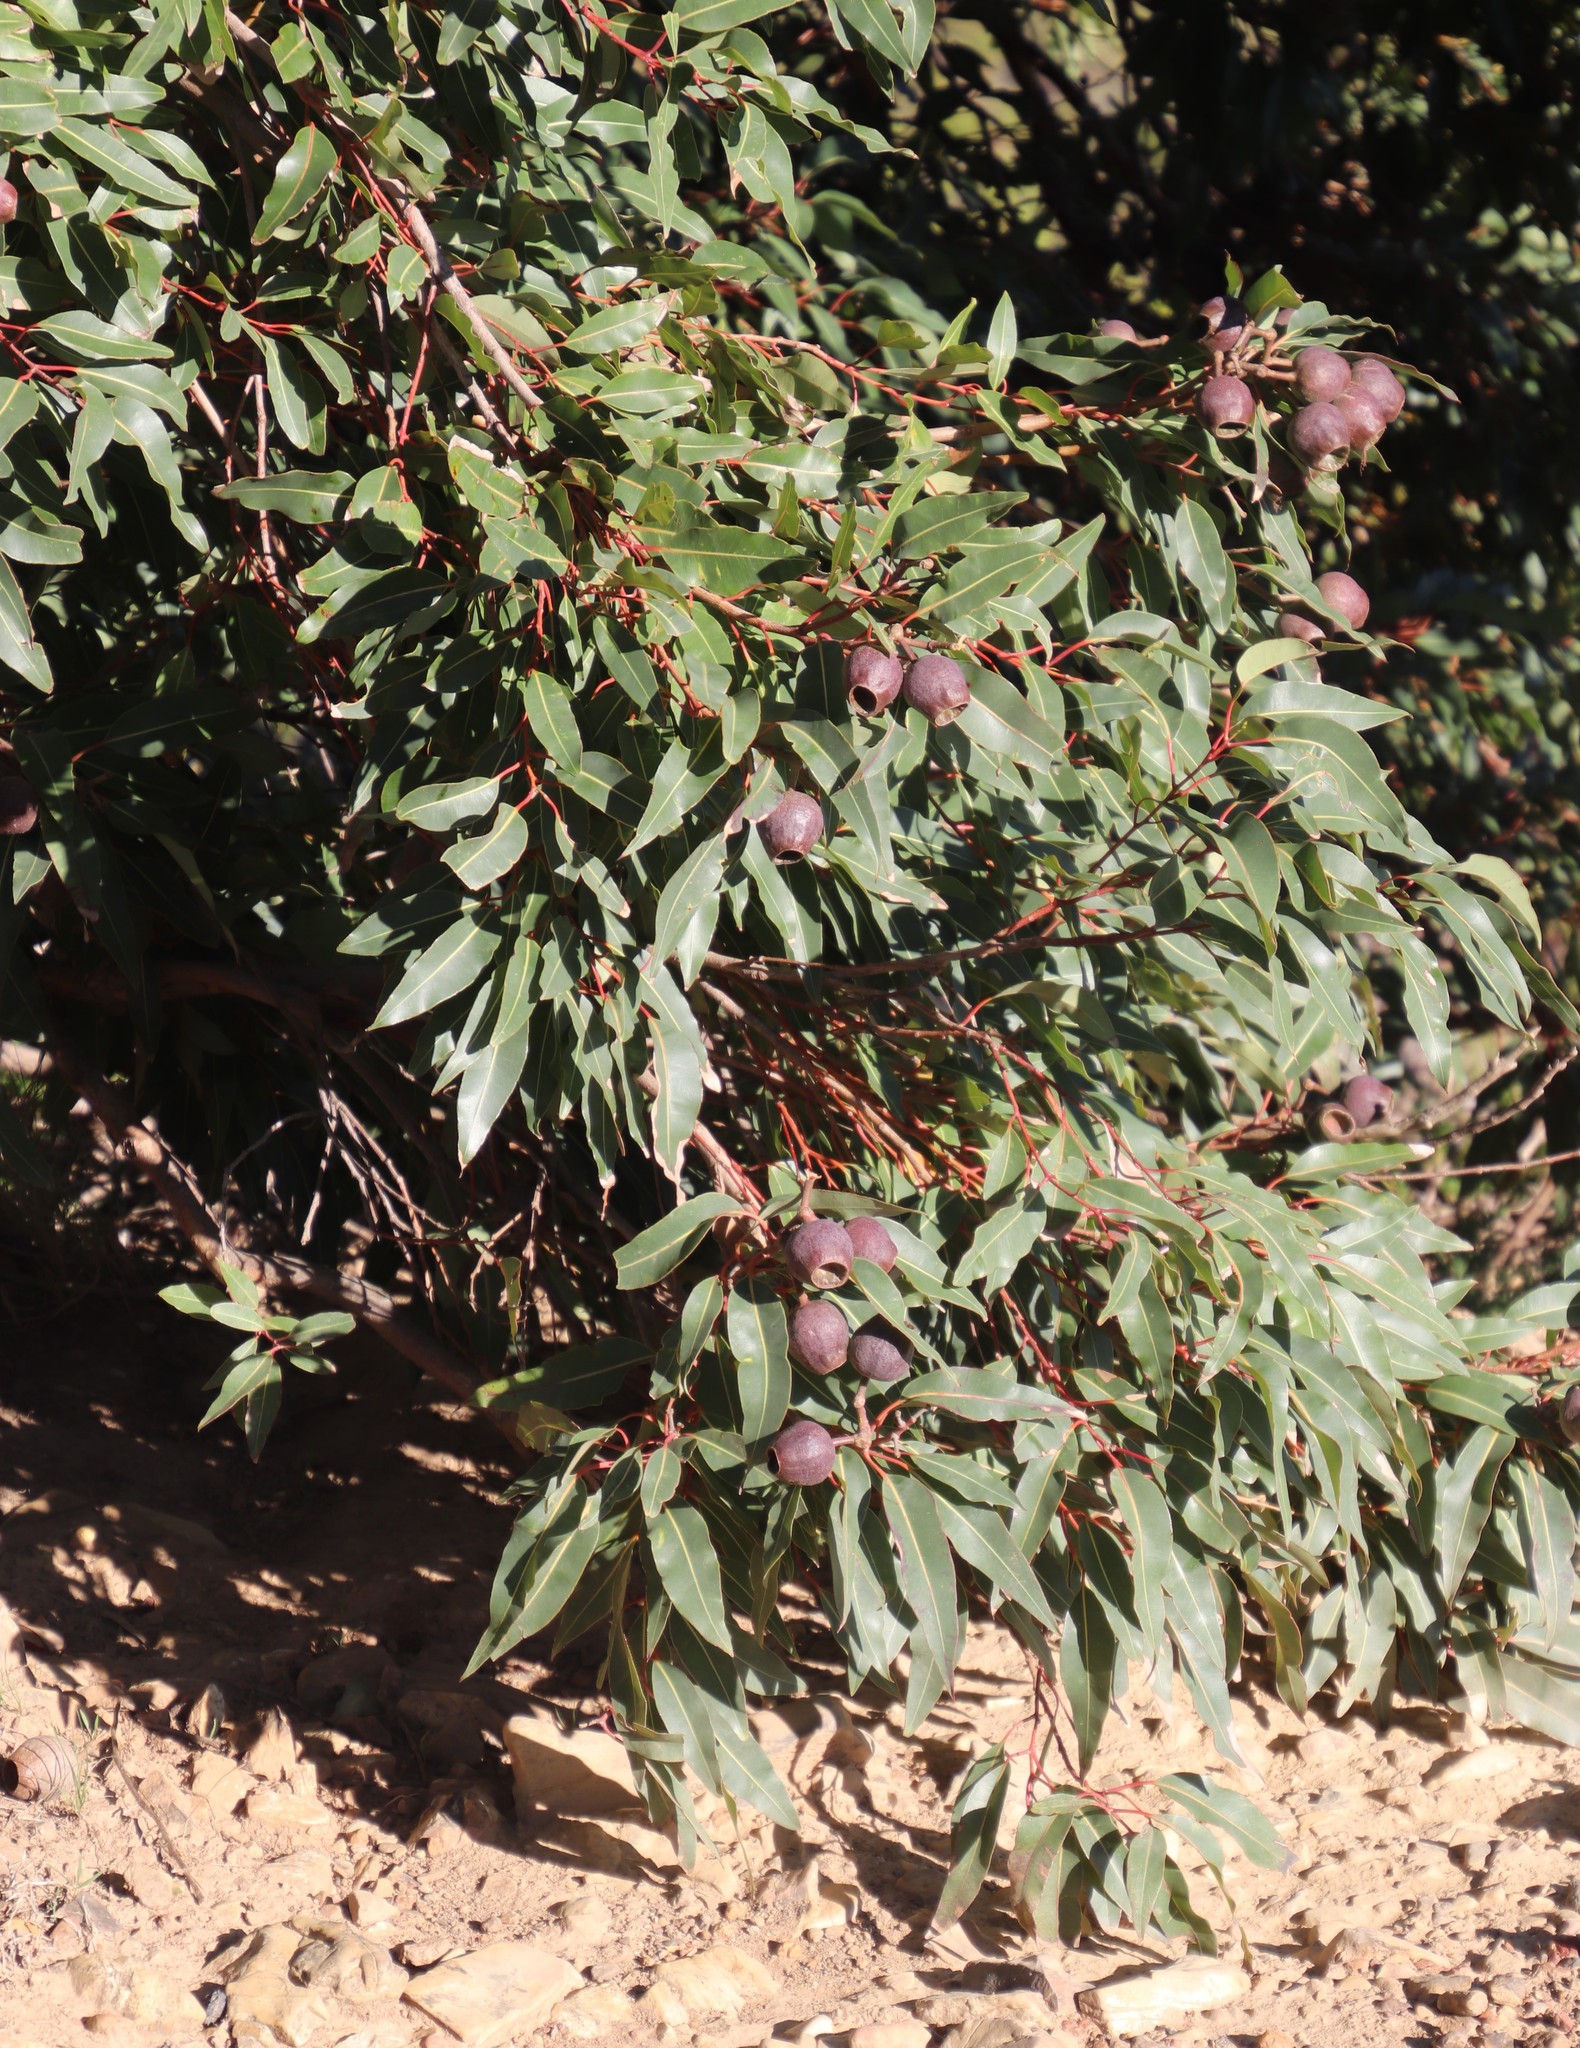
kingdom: Plantae
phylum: Tracheophyta
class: Magnoliopsida
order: Myrtales
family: Myrtaceae
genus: Corymbia
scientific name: Corymbia ficifolia
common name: Redflower gum
